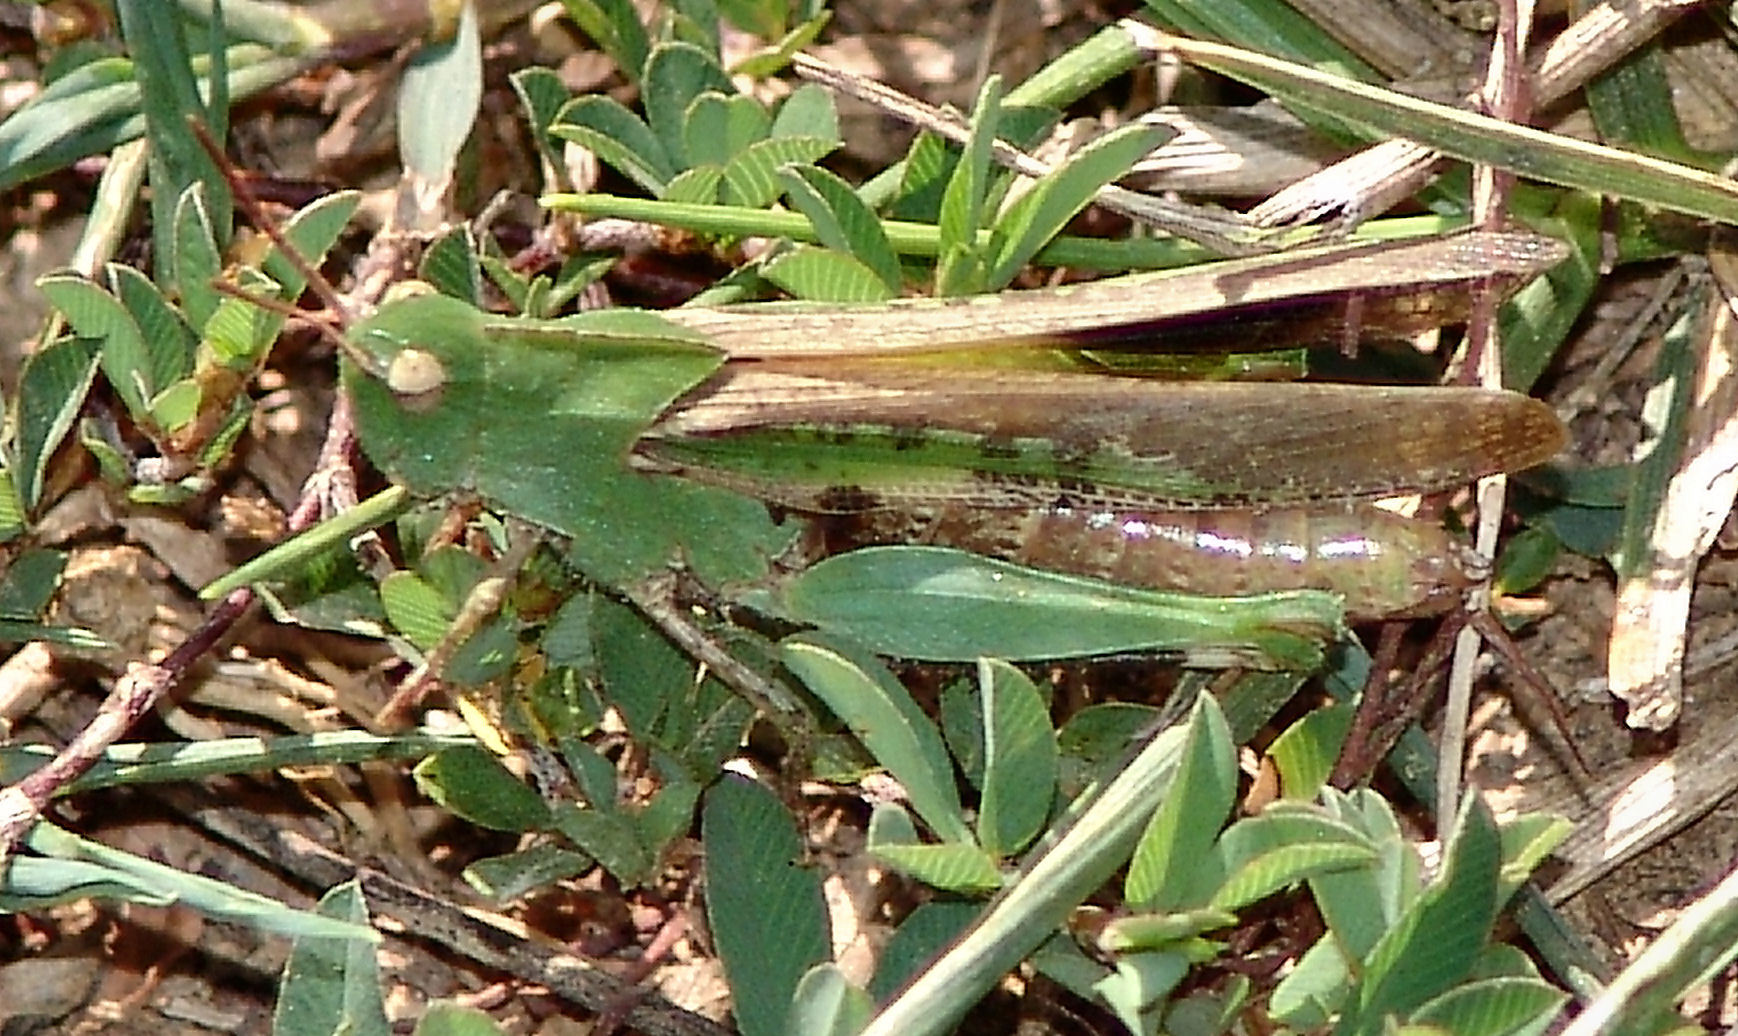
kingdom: Animalia
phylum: Arthropoda
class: Insecta
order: Orthoptera
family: Acrididae
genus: Chortophaga
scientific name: Chortophaga viridifasciata
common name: Green-striped grasshopper
